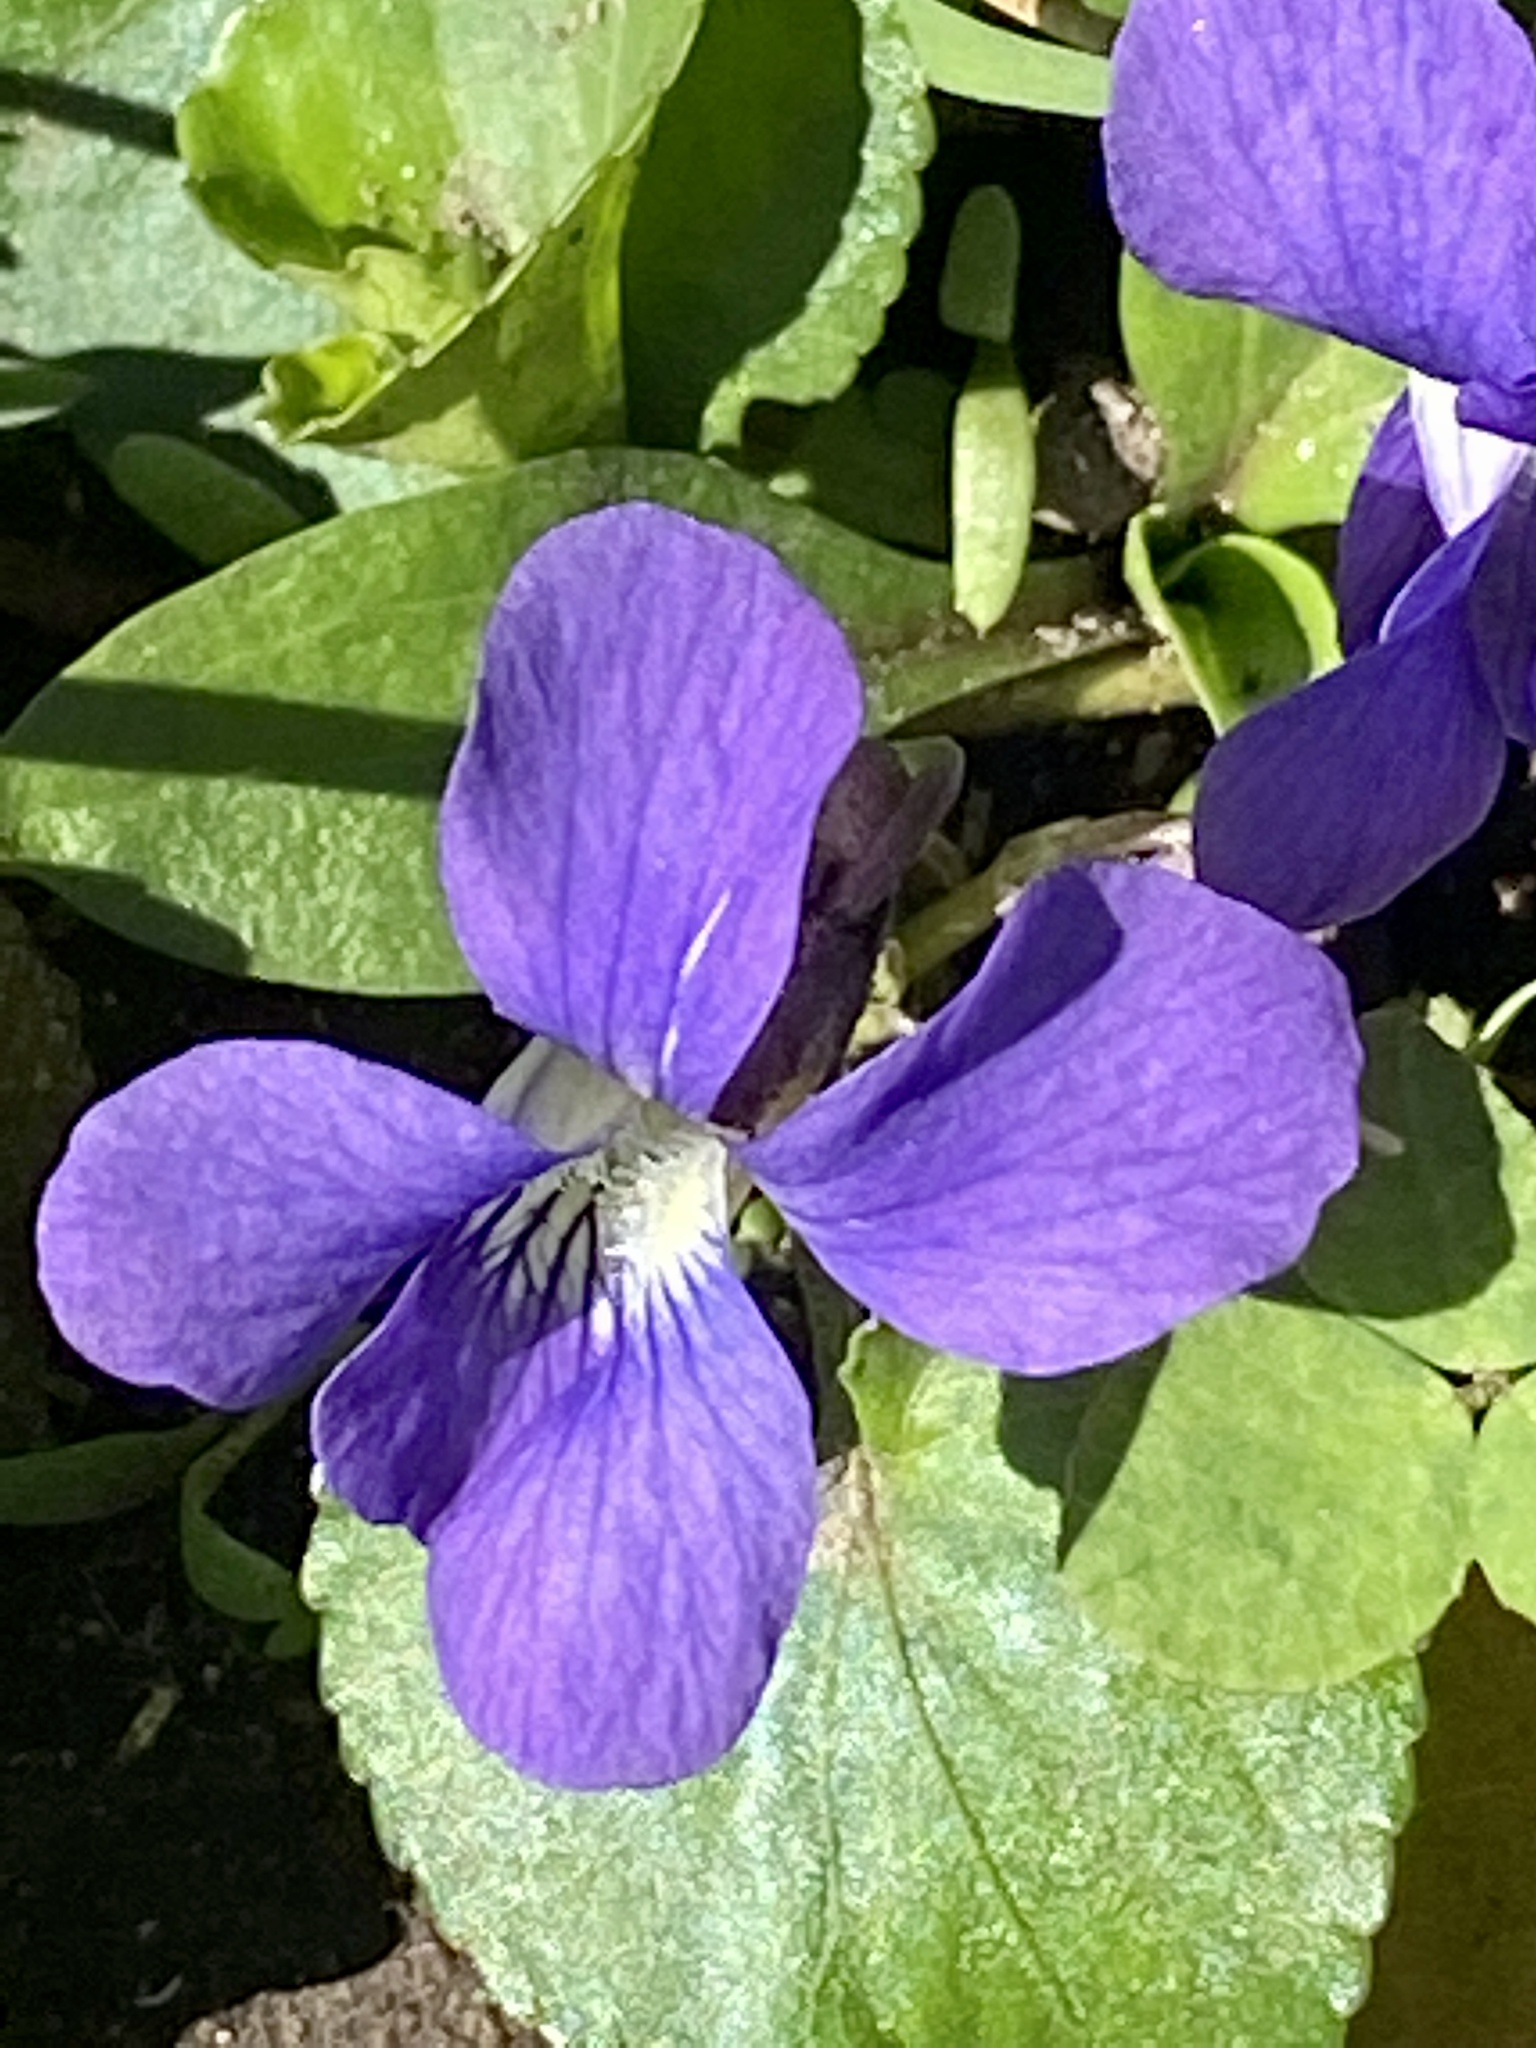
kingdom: Plantae
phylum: Tracheophyta
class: Magnoliopsida
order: Malpighiales
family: Violaceae
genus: Viola
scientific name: Viola sororia
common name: Dooryard violet
